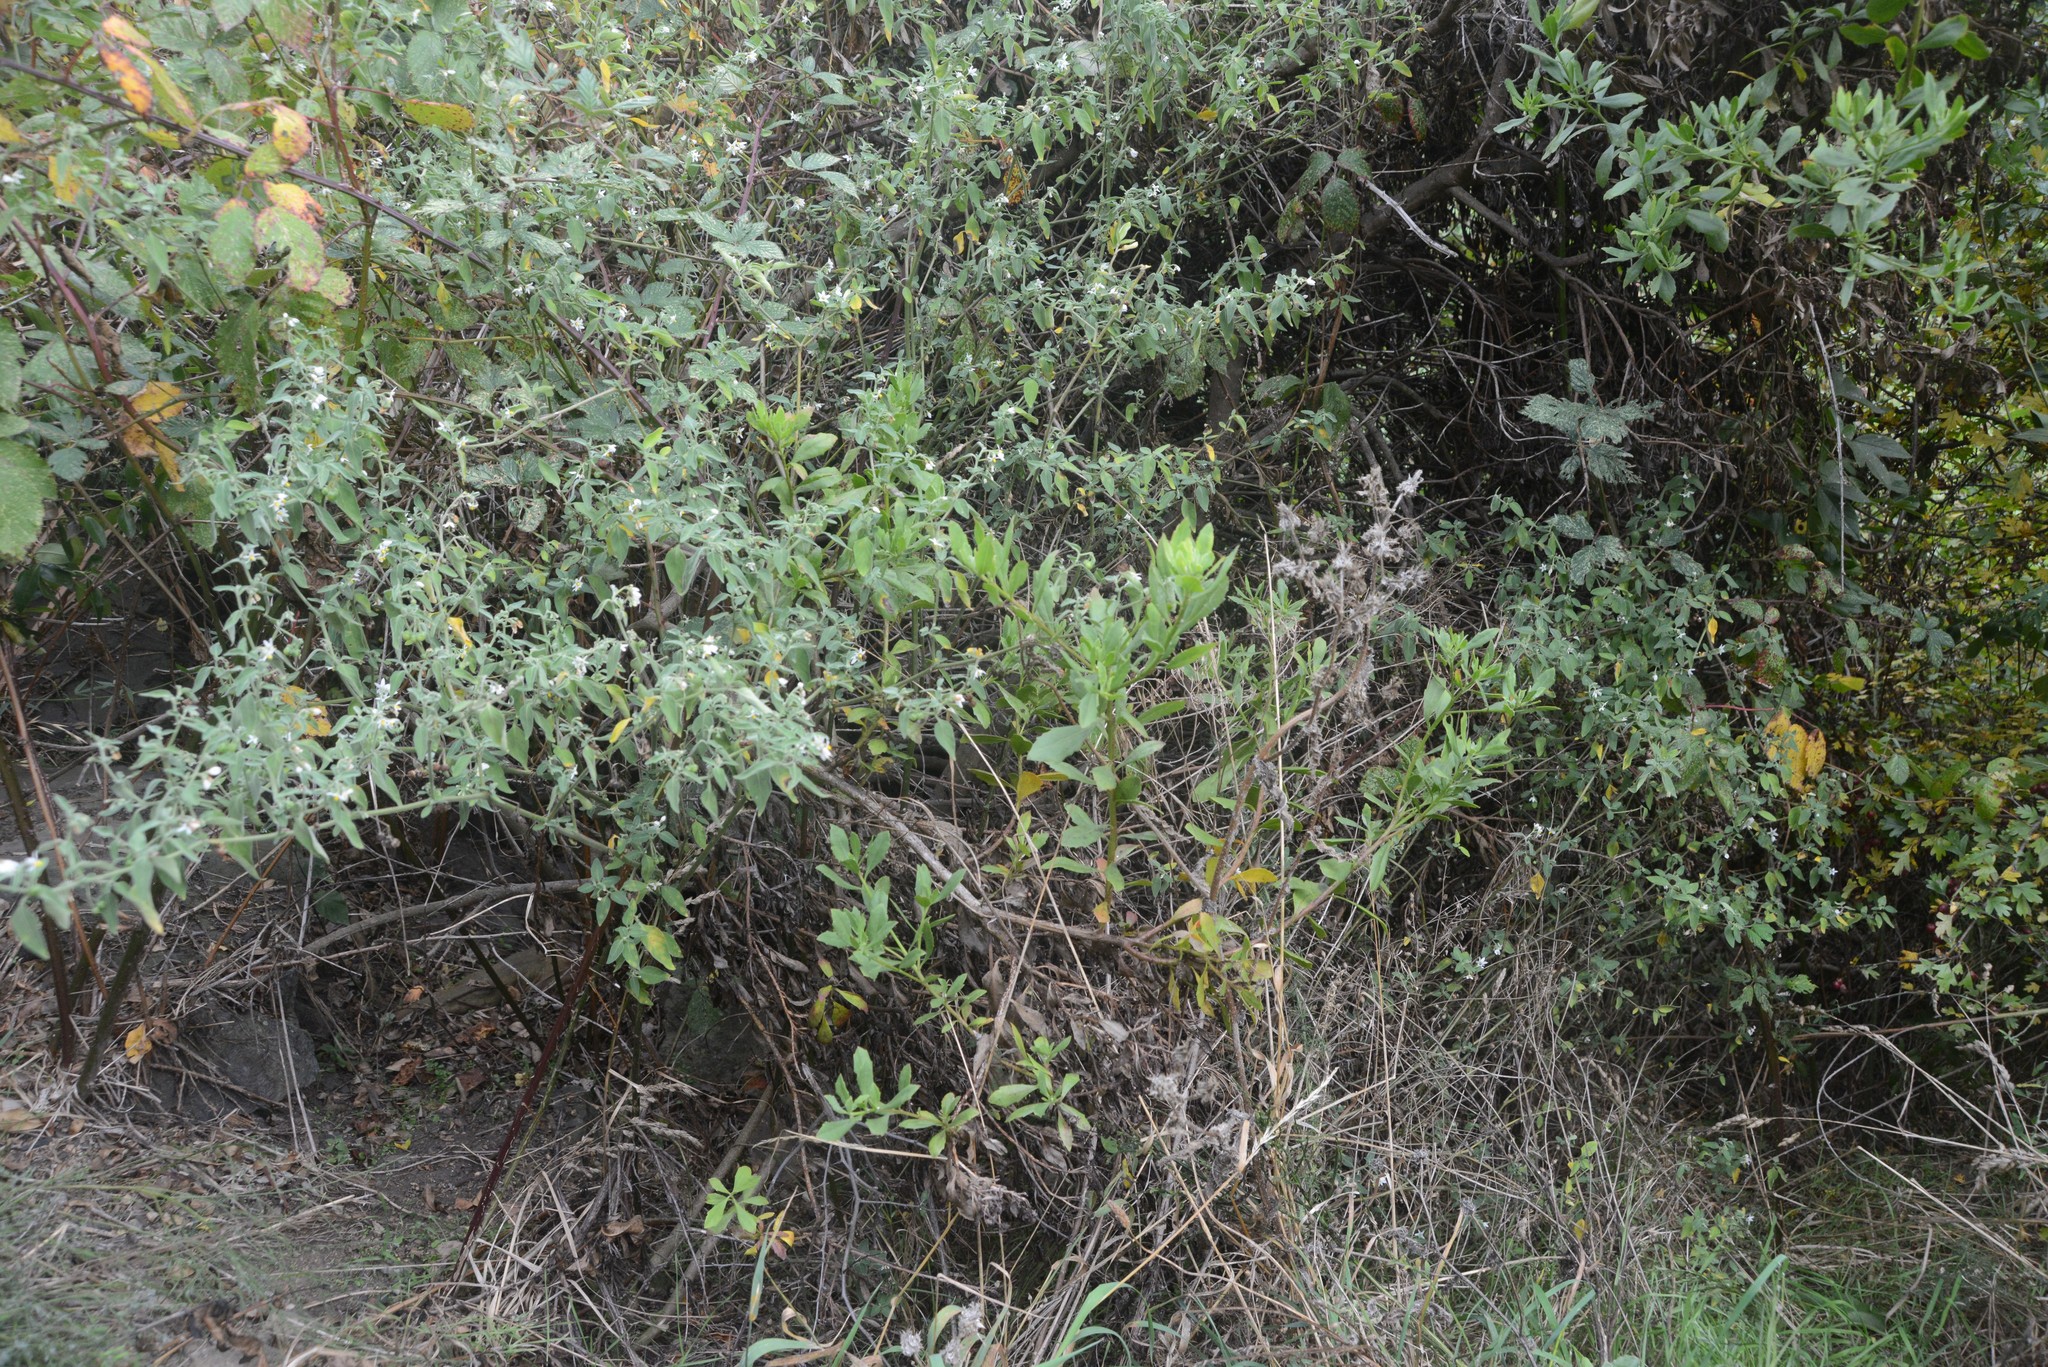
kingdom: Plantae
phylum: Tracheophyta
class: Magnoliopsida
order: Asterales
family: Asteraceae
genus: Osteospermum
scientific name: Osteospermum moniliferum
